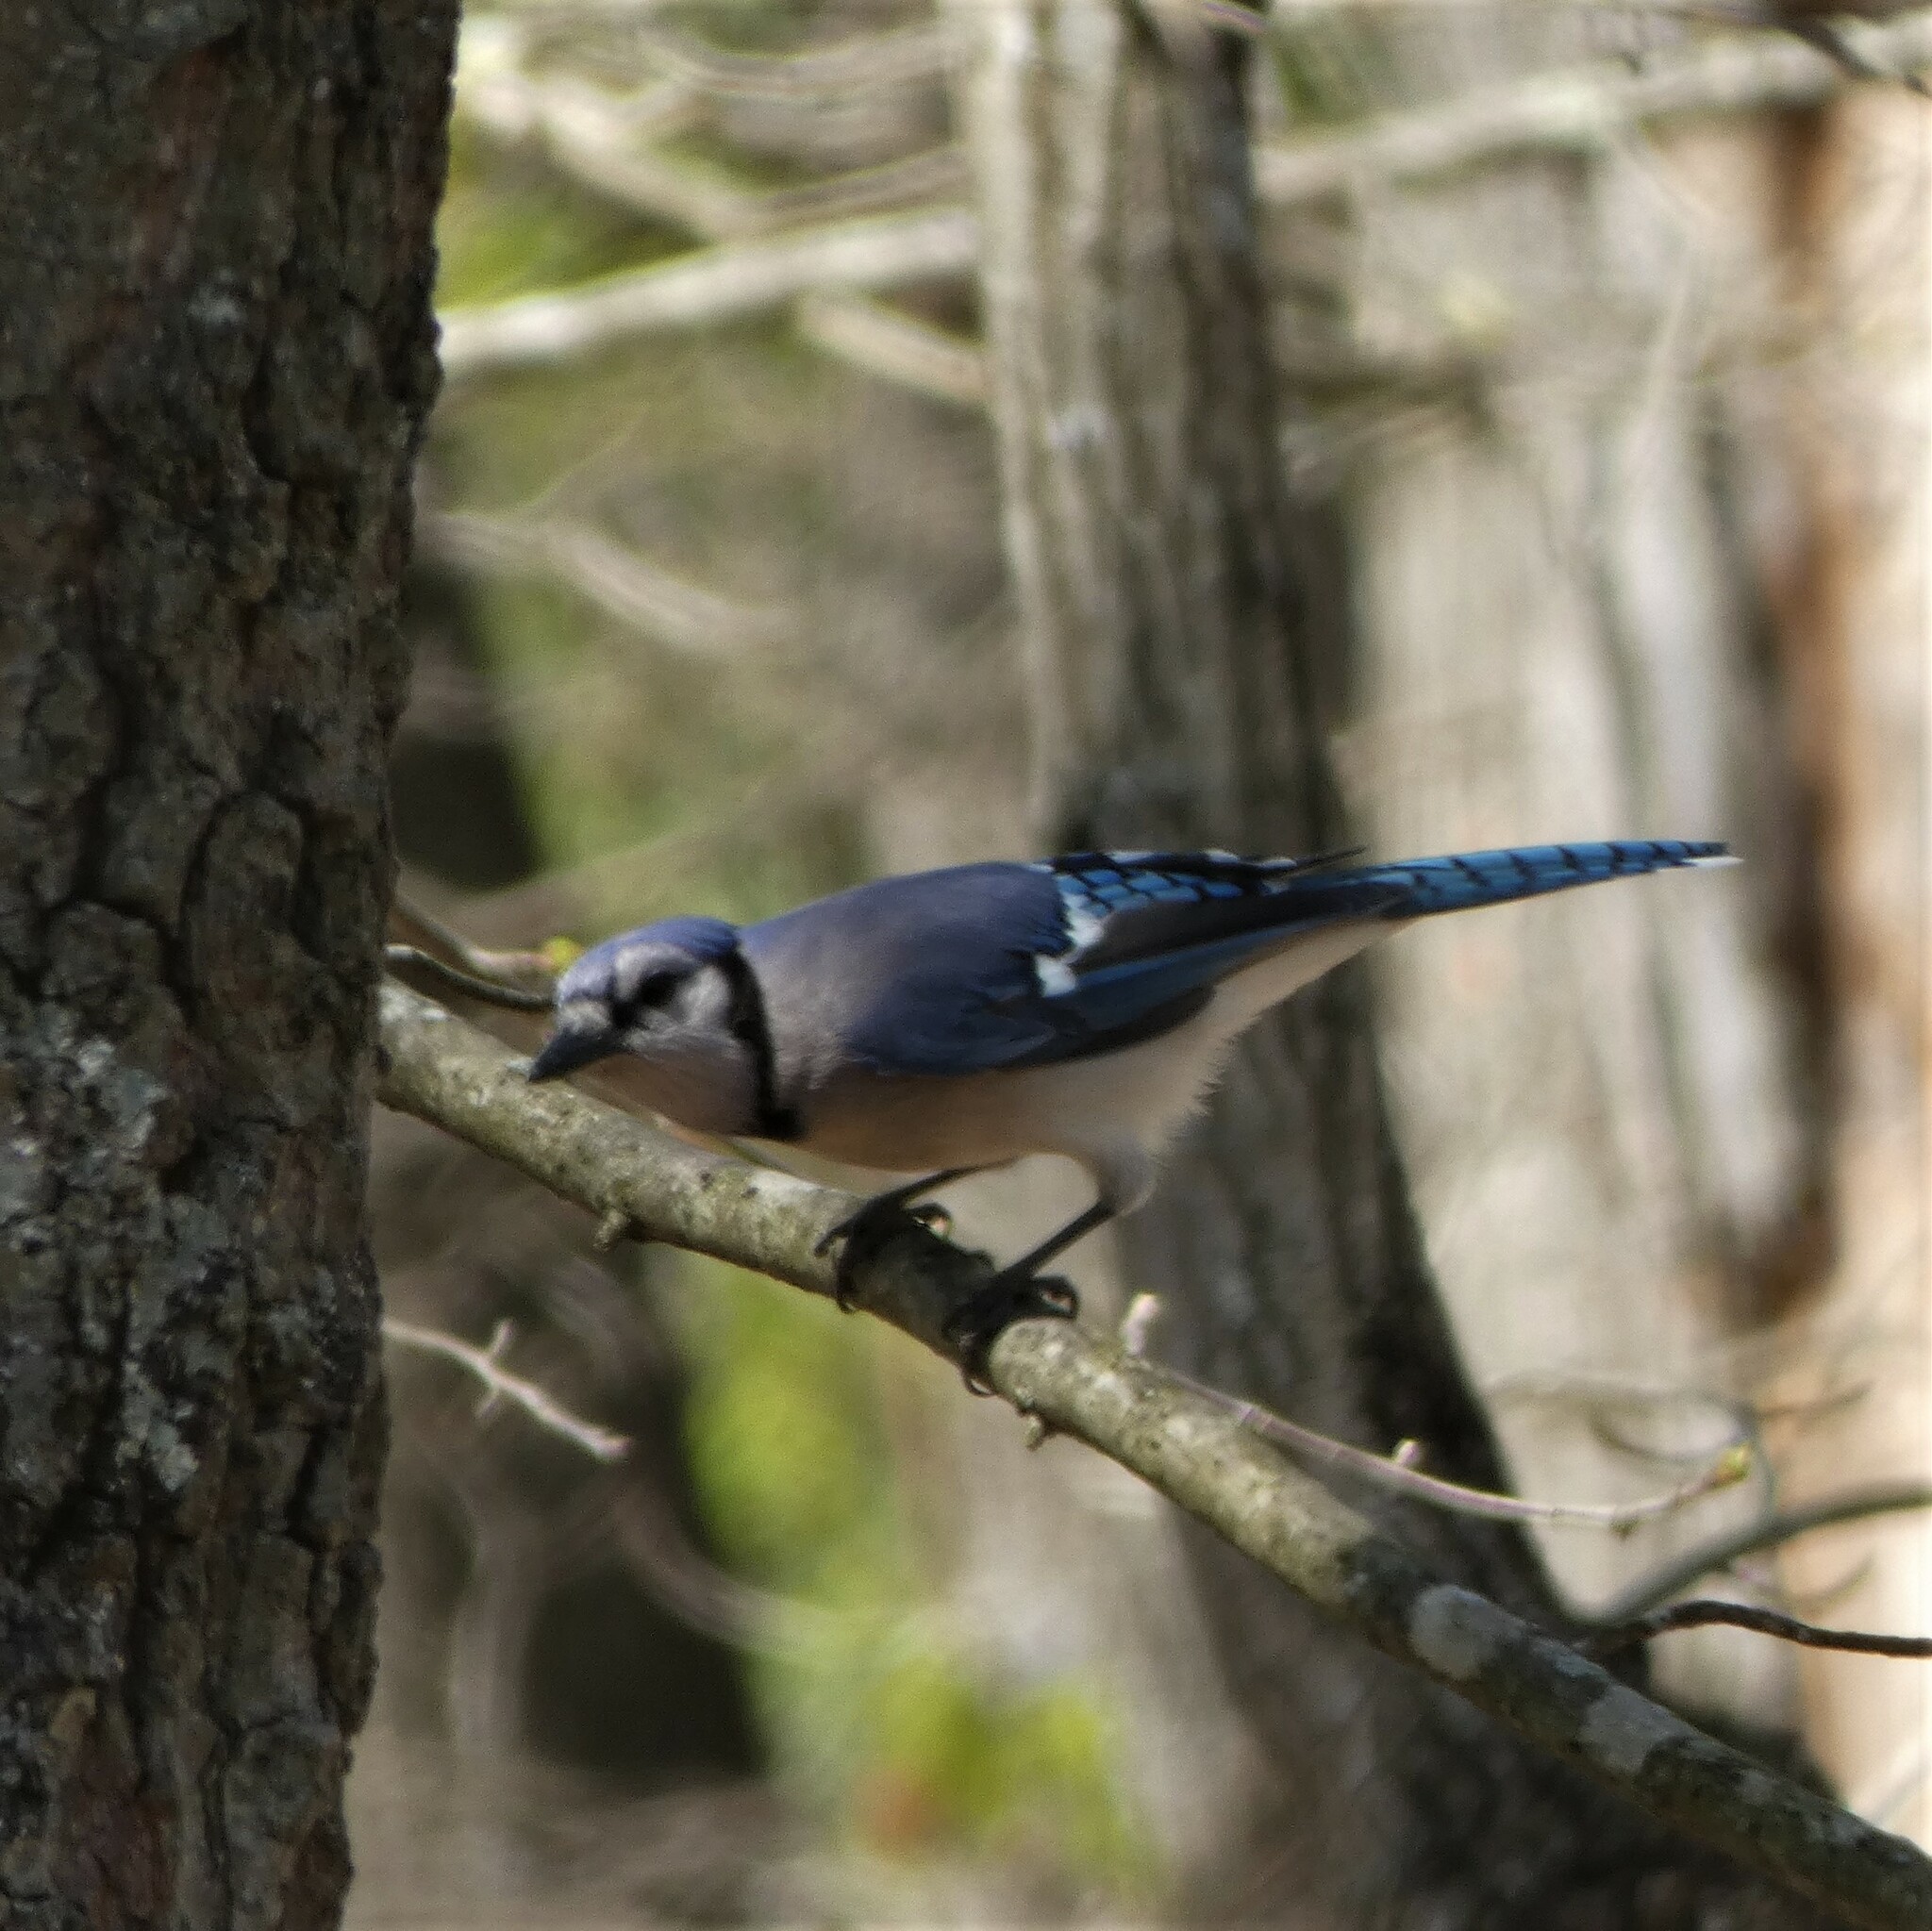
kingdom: Animalia
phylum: Chordata
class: Aves
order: Passeriformes
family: Corvidae
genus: Cyanocitta
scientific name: Cyanocitta cristata
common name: Blue jay
